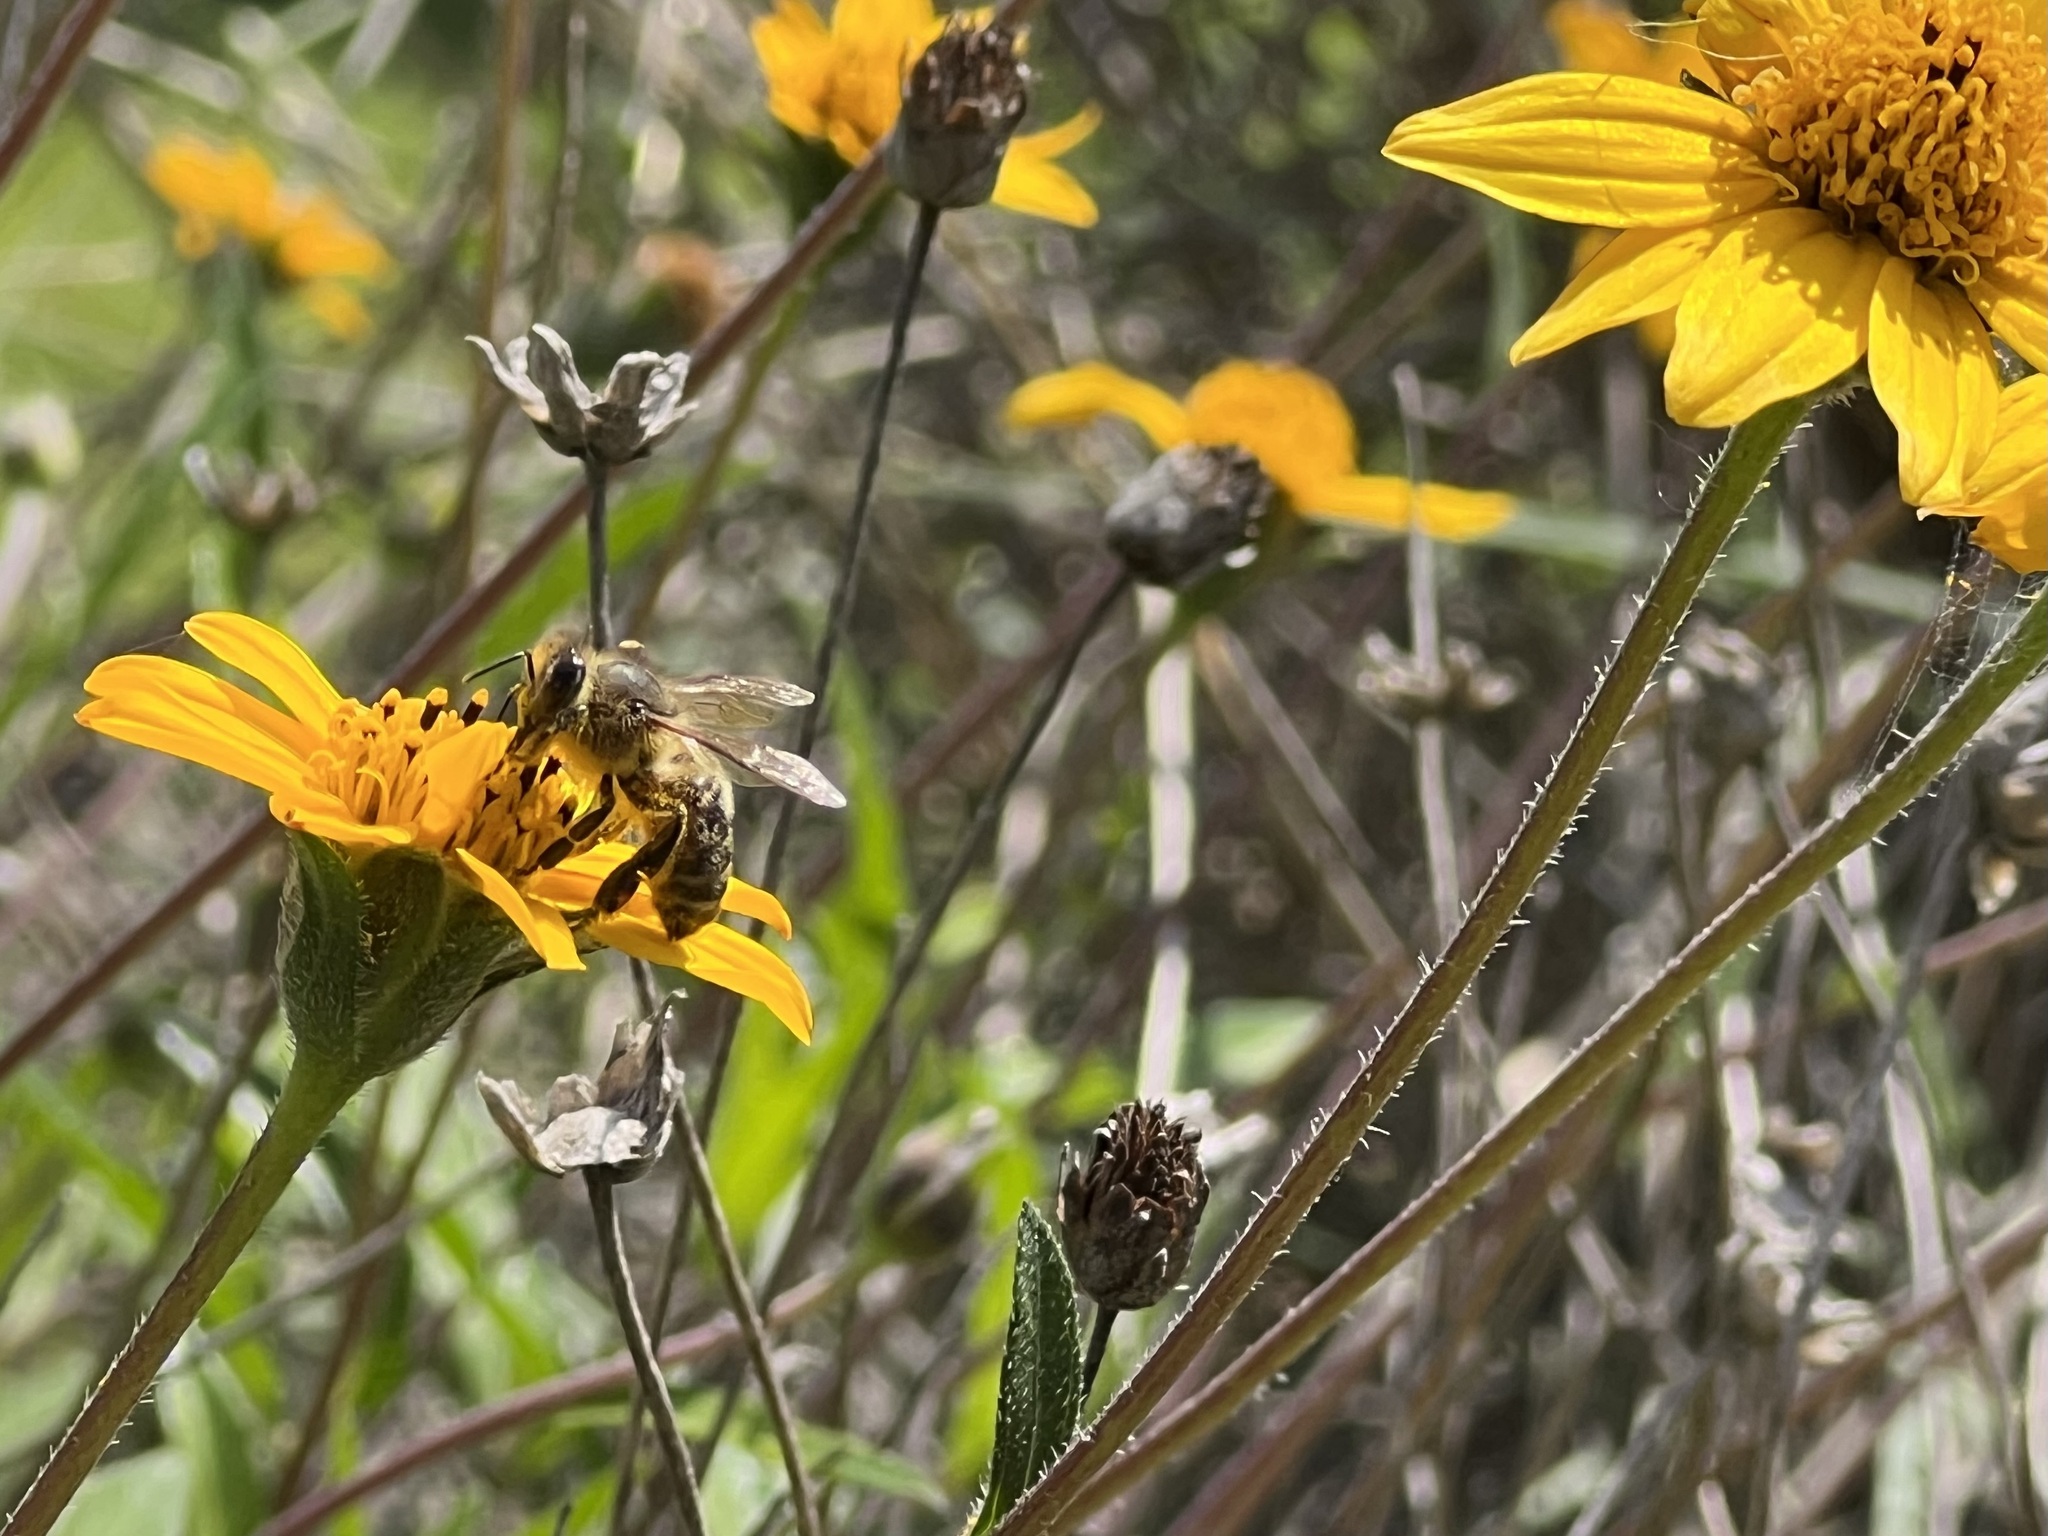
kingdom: Animalia
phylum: Arthropoda
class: Insecta
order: Hymenoptera
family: Apidae
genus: Apis
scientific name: Apis mellifera
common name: Honey bee
